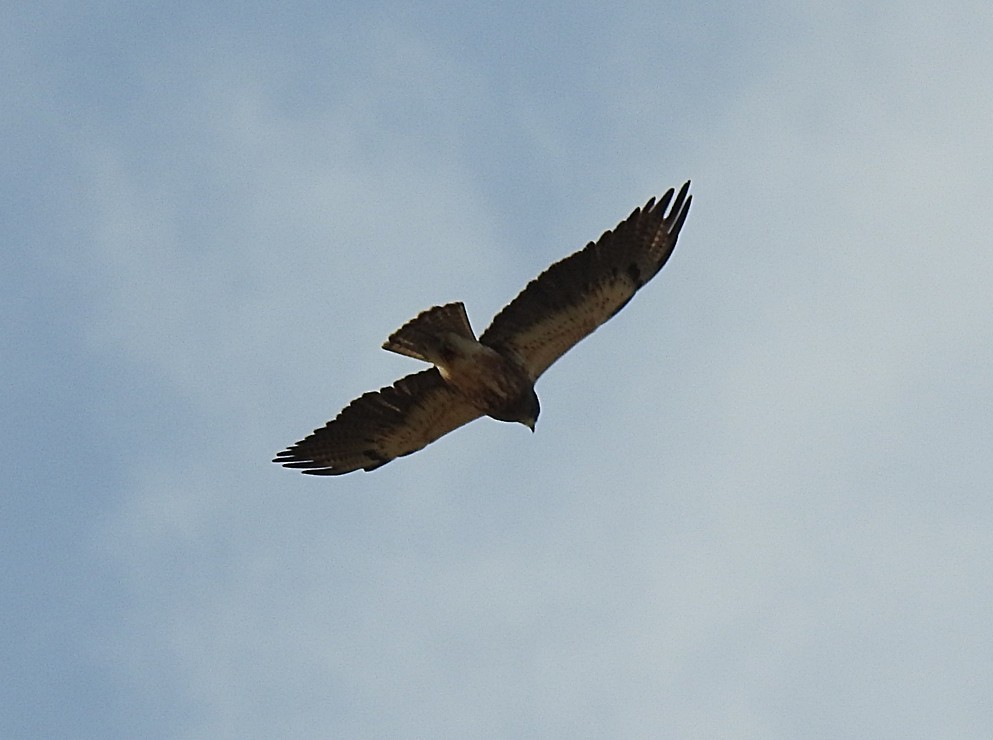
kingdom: Animalia
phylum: Chordata
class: Aves
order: Accipitriformes
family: Accipitridae
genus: Buteo
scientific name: Buteo swainsoni
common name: Swainson's hawk
